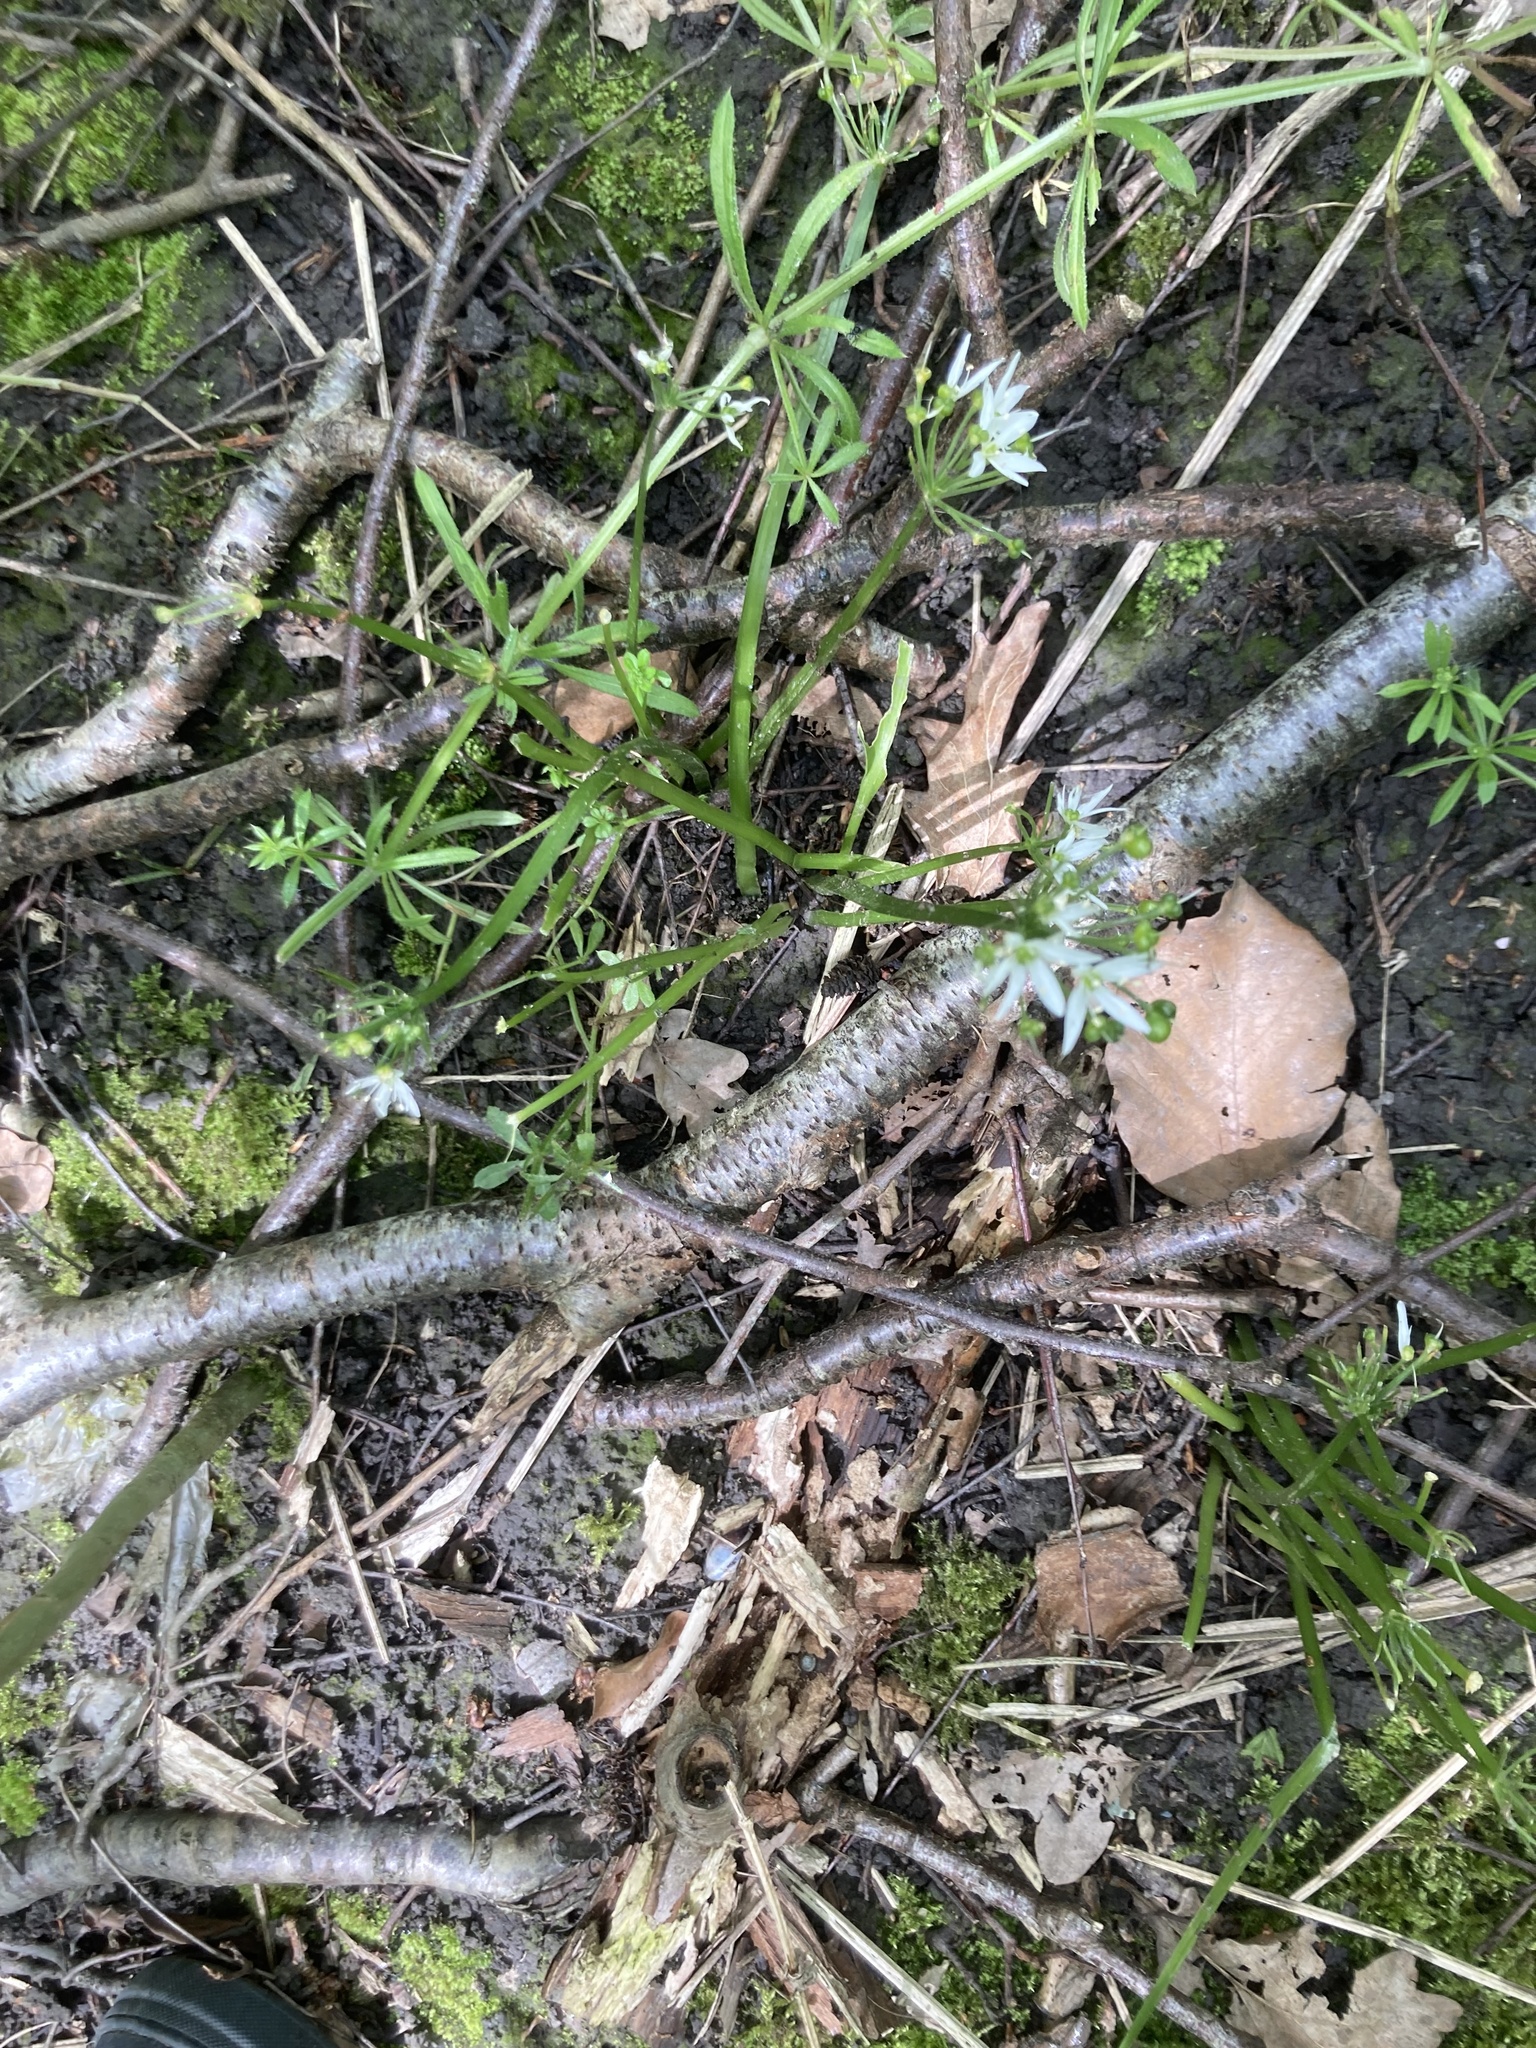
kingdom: Plantae
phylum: Tracheophyta
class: Liliopsida
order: Asparagales
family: Amaryllidaceae
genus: Allium
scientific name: Allium ursinum
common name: Ramsons
